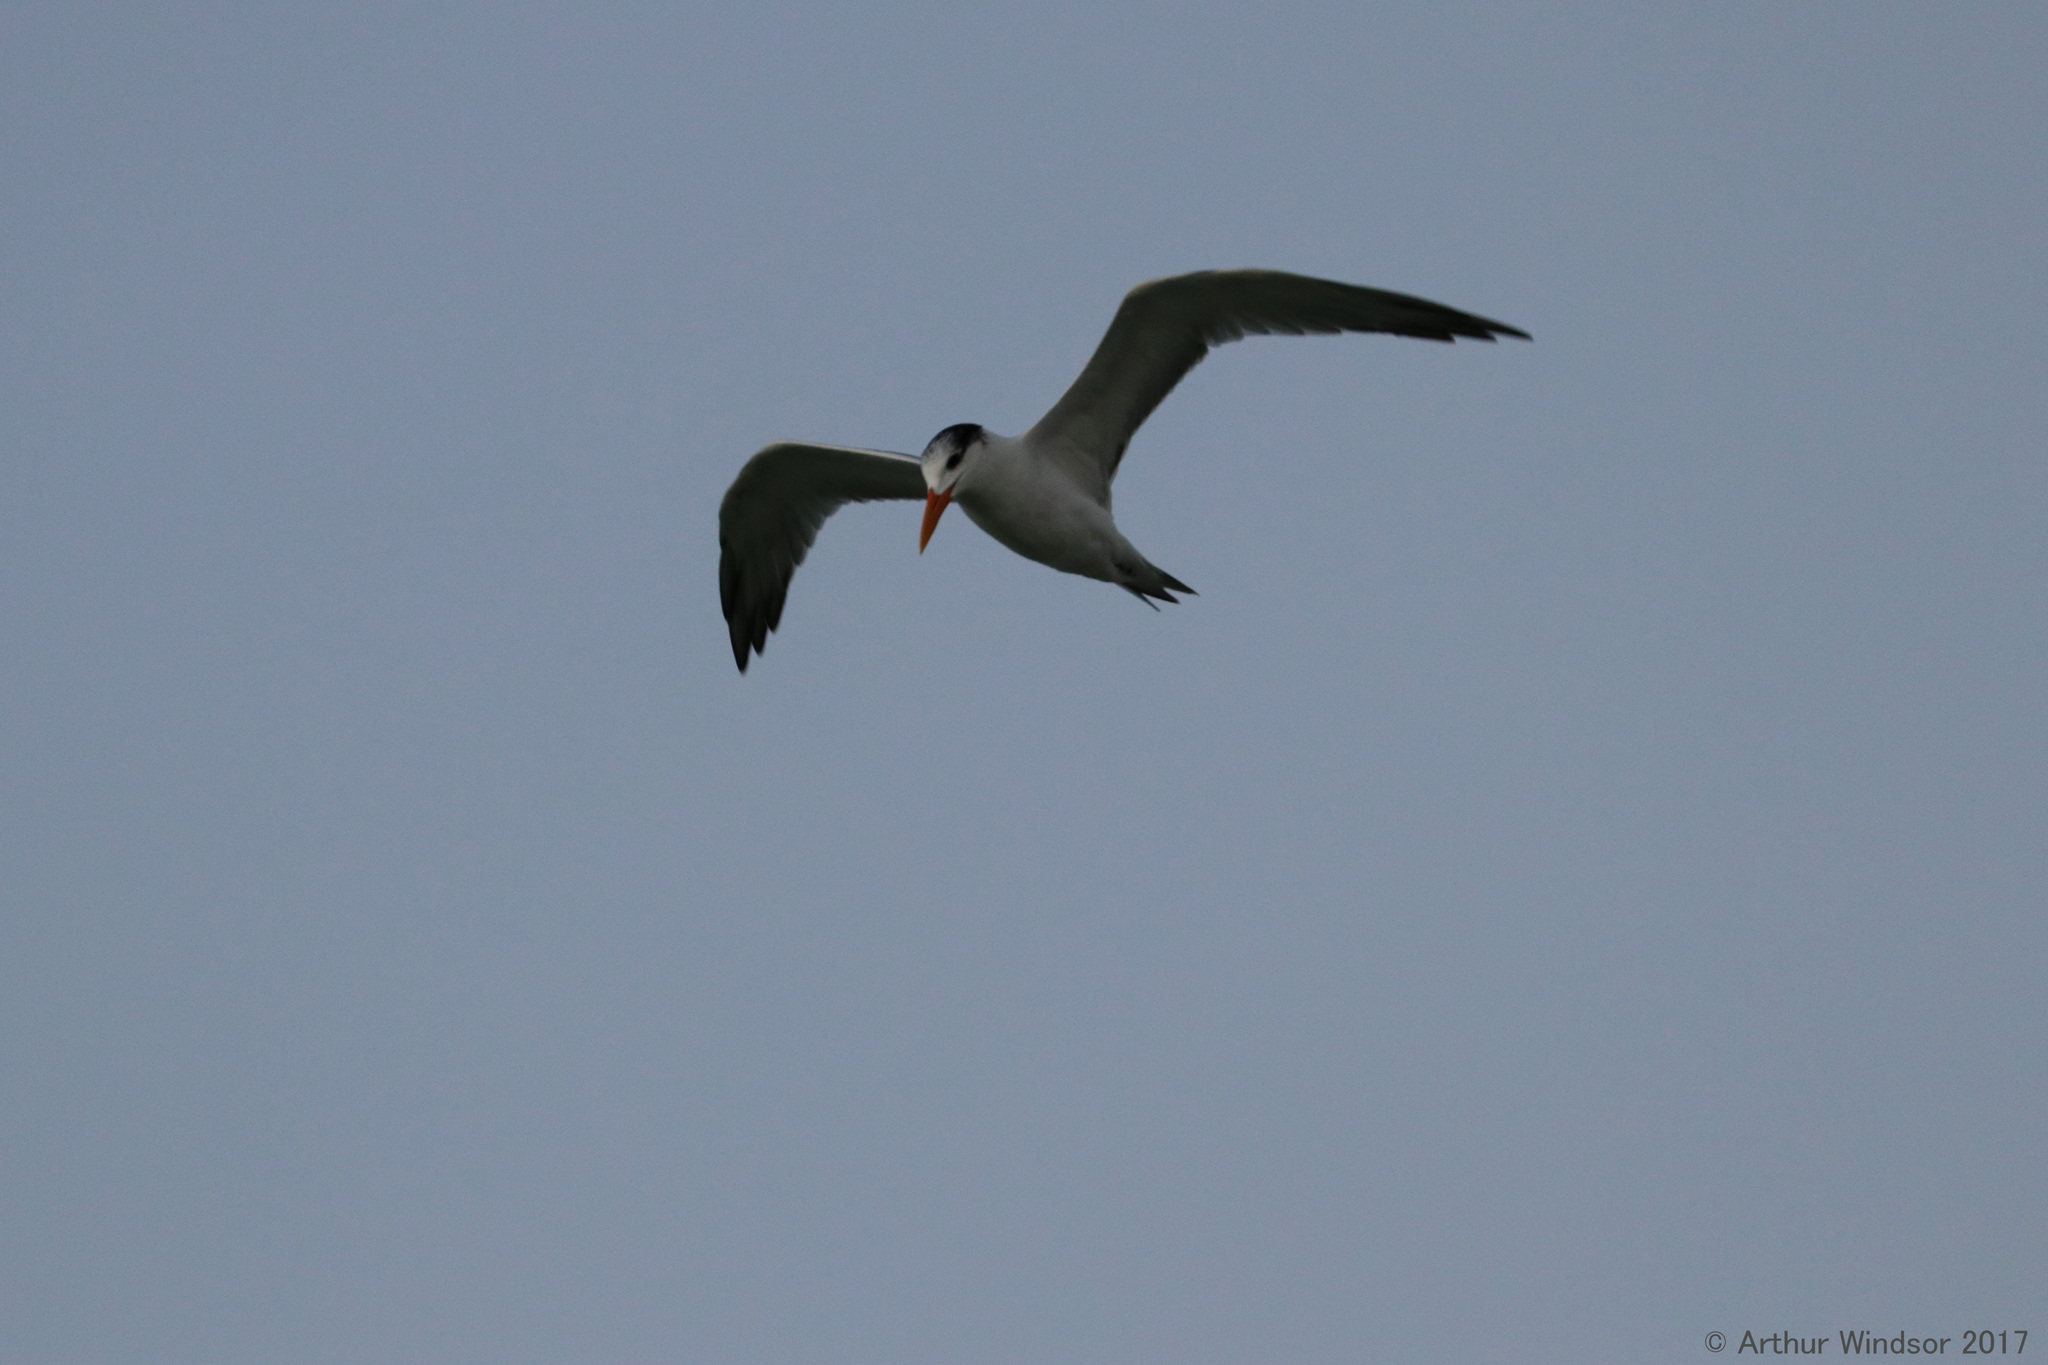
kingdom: Animalia
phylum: Chordata
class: Aves
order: Charadriiformes
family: Laridae
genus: Thalasseus
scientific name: Thalasseus maximus
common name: Royal tern
